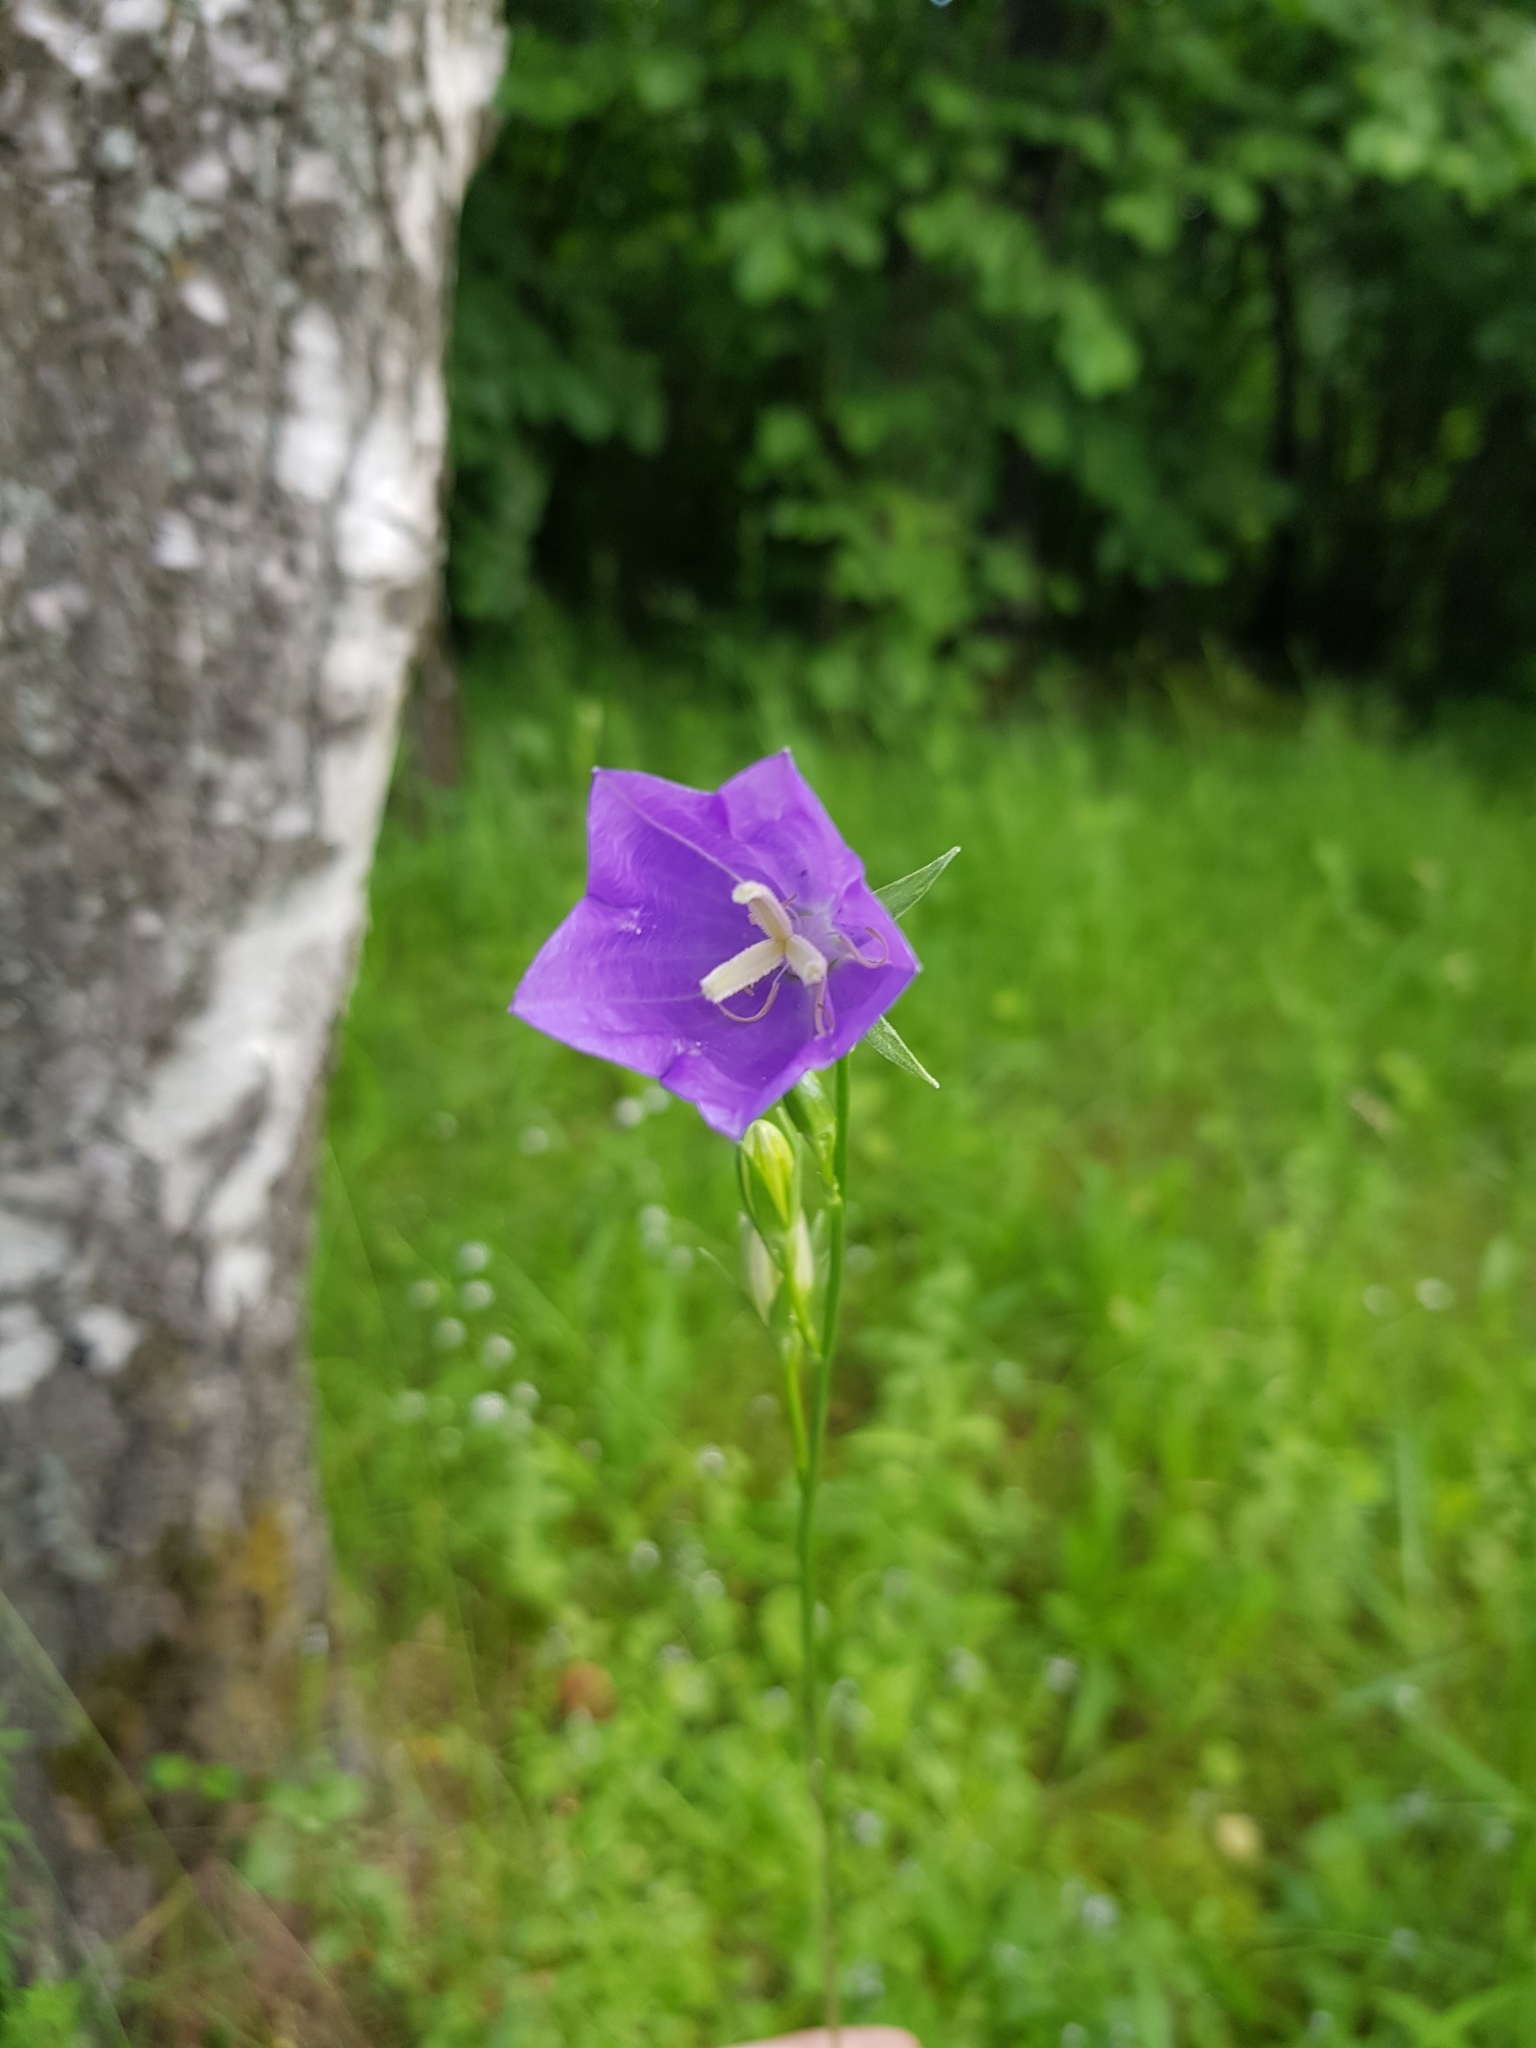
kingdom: Plantae
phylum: Tracheophyta
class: Magnoliopsida
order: Asterales
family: Campanulaceae
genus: Campanula
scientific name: Campanula persicifolia
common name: Peach-leaved bellflower
